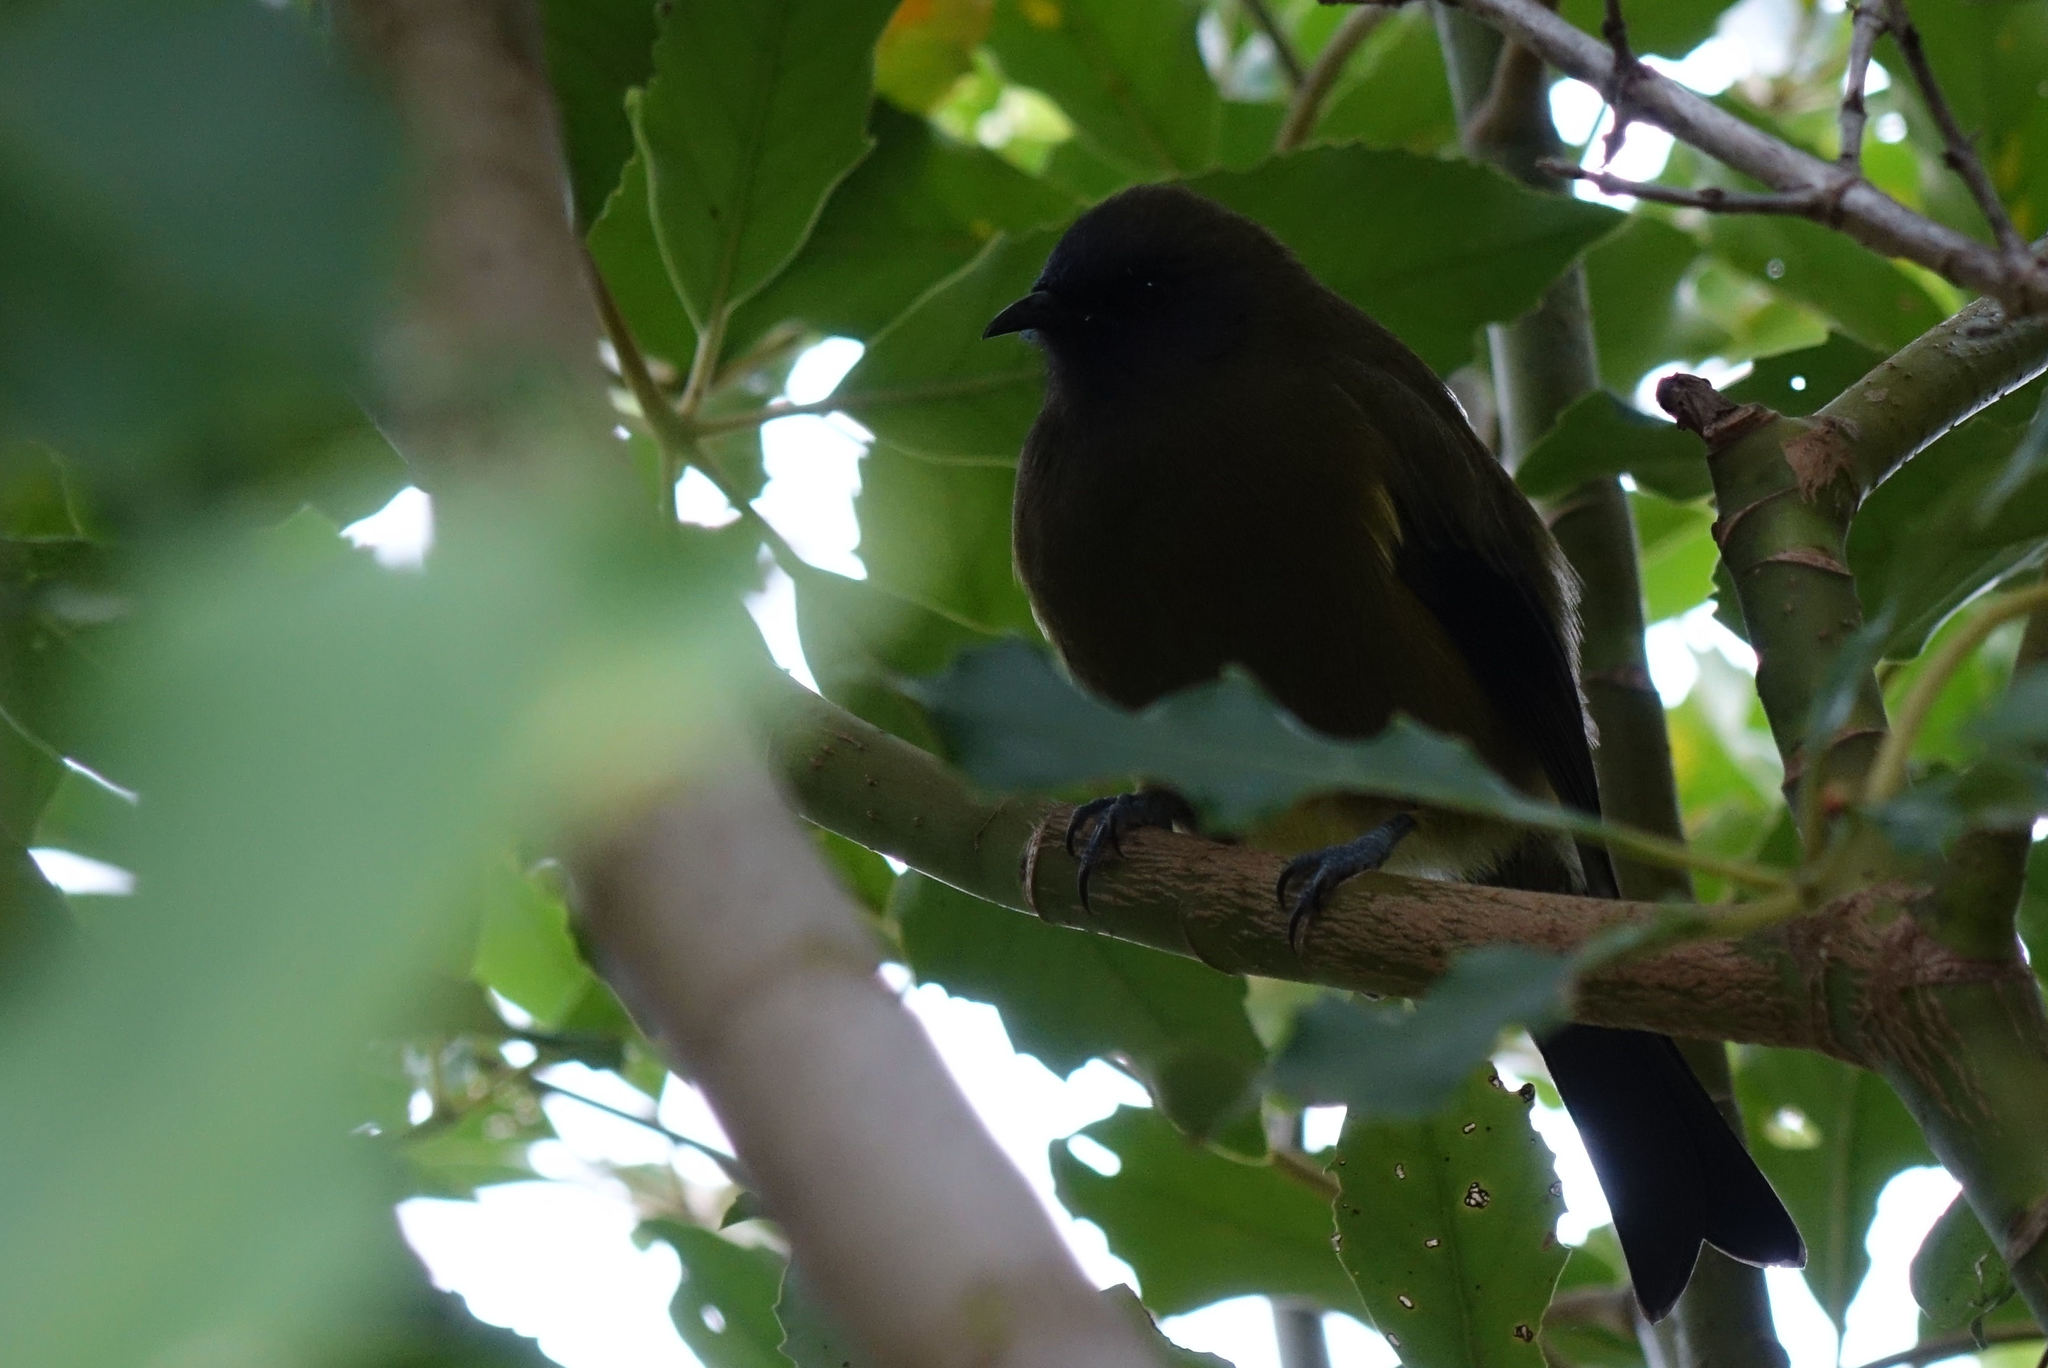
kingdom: Animalia
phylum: Chordata
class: Aves
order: Passeriformes
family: Meliphagidae
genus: Anthornis
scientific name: Anthornis melanura
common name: New zealand bellbird
